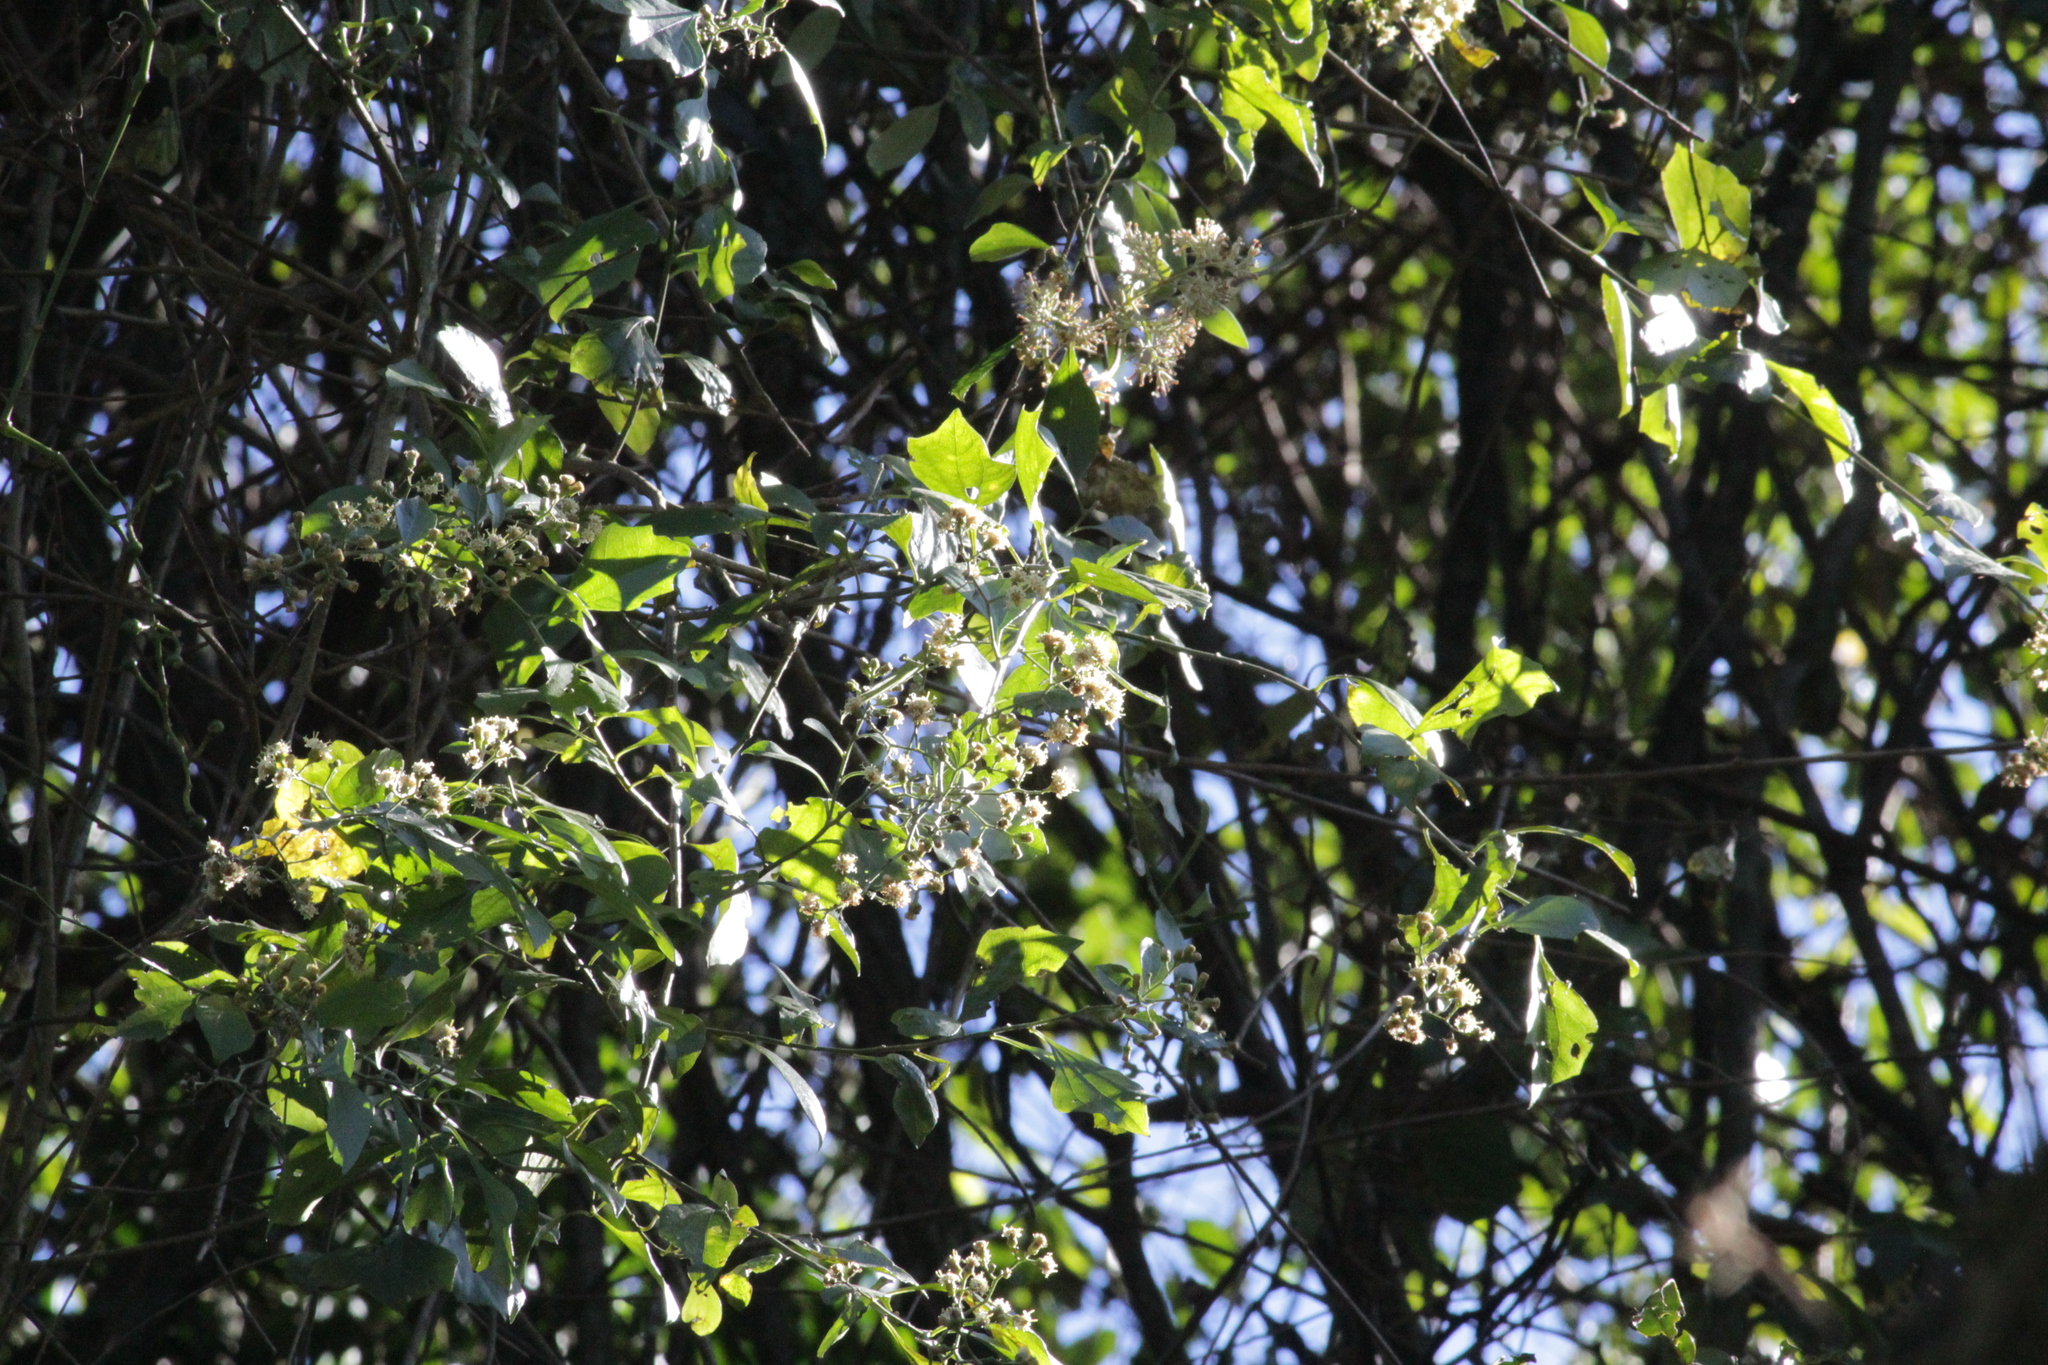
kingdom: Plantae
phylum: Tracheophyta
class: Magnoliopsida
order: Asterales
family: Asteraceae
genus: Distephanus
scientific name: Distephanus anisochaetoides
